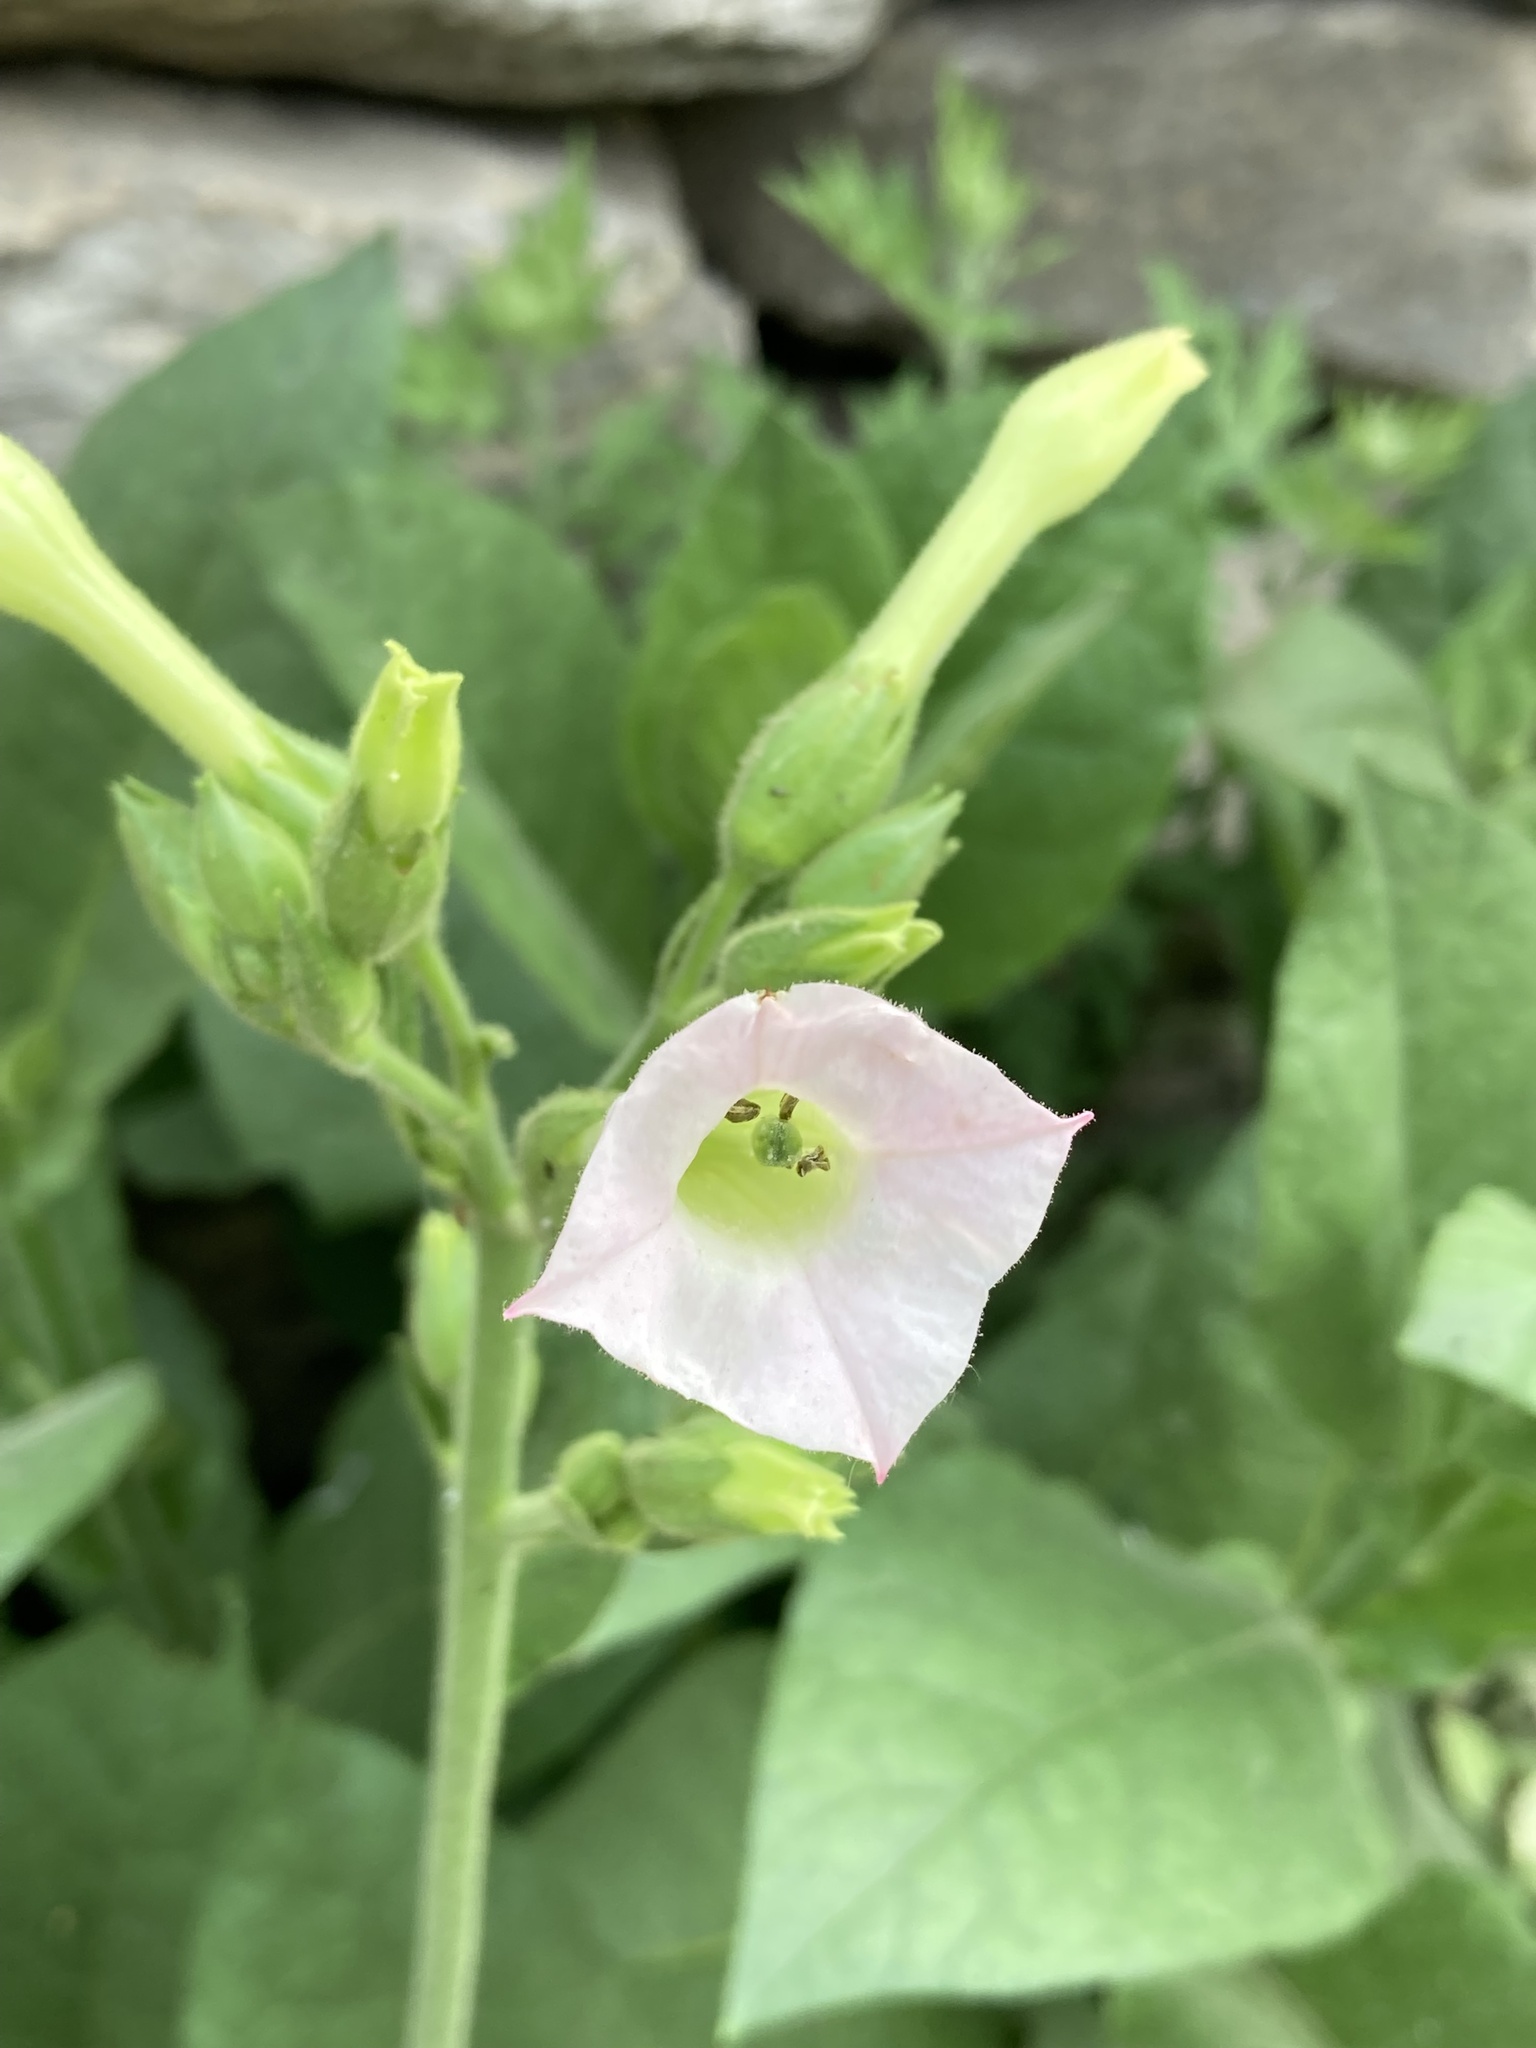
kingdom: Plantae
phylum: Tracheophyta
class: Magnoliopsida
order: Solanales
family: Solanaceae
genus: Nicotiana
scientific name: Nicotiana tabacum
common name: Tobacco
